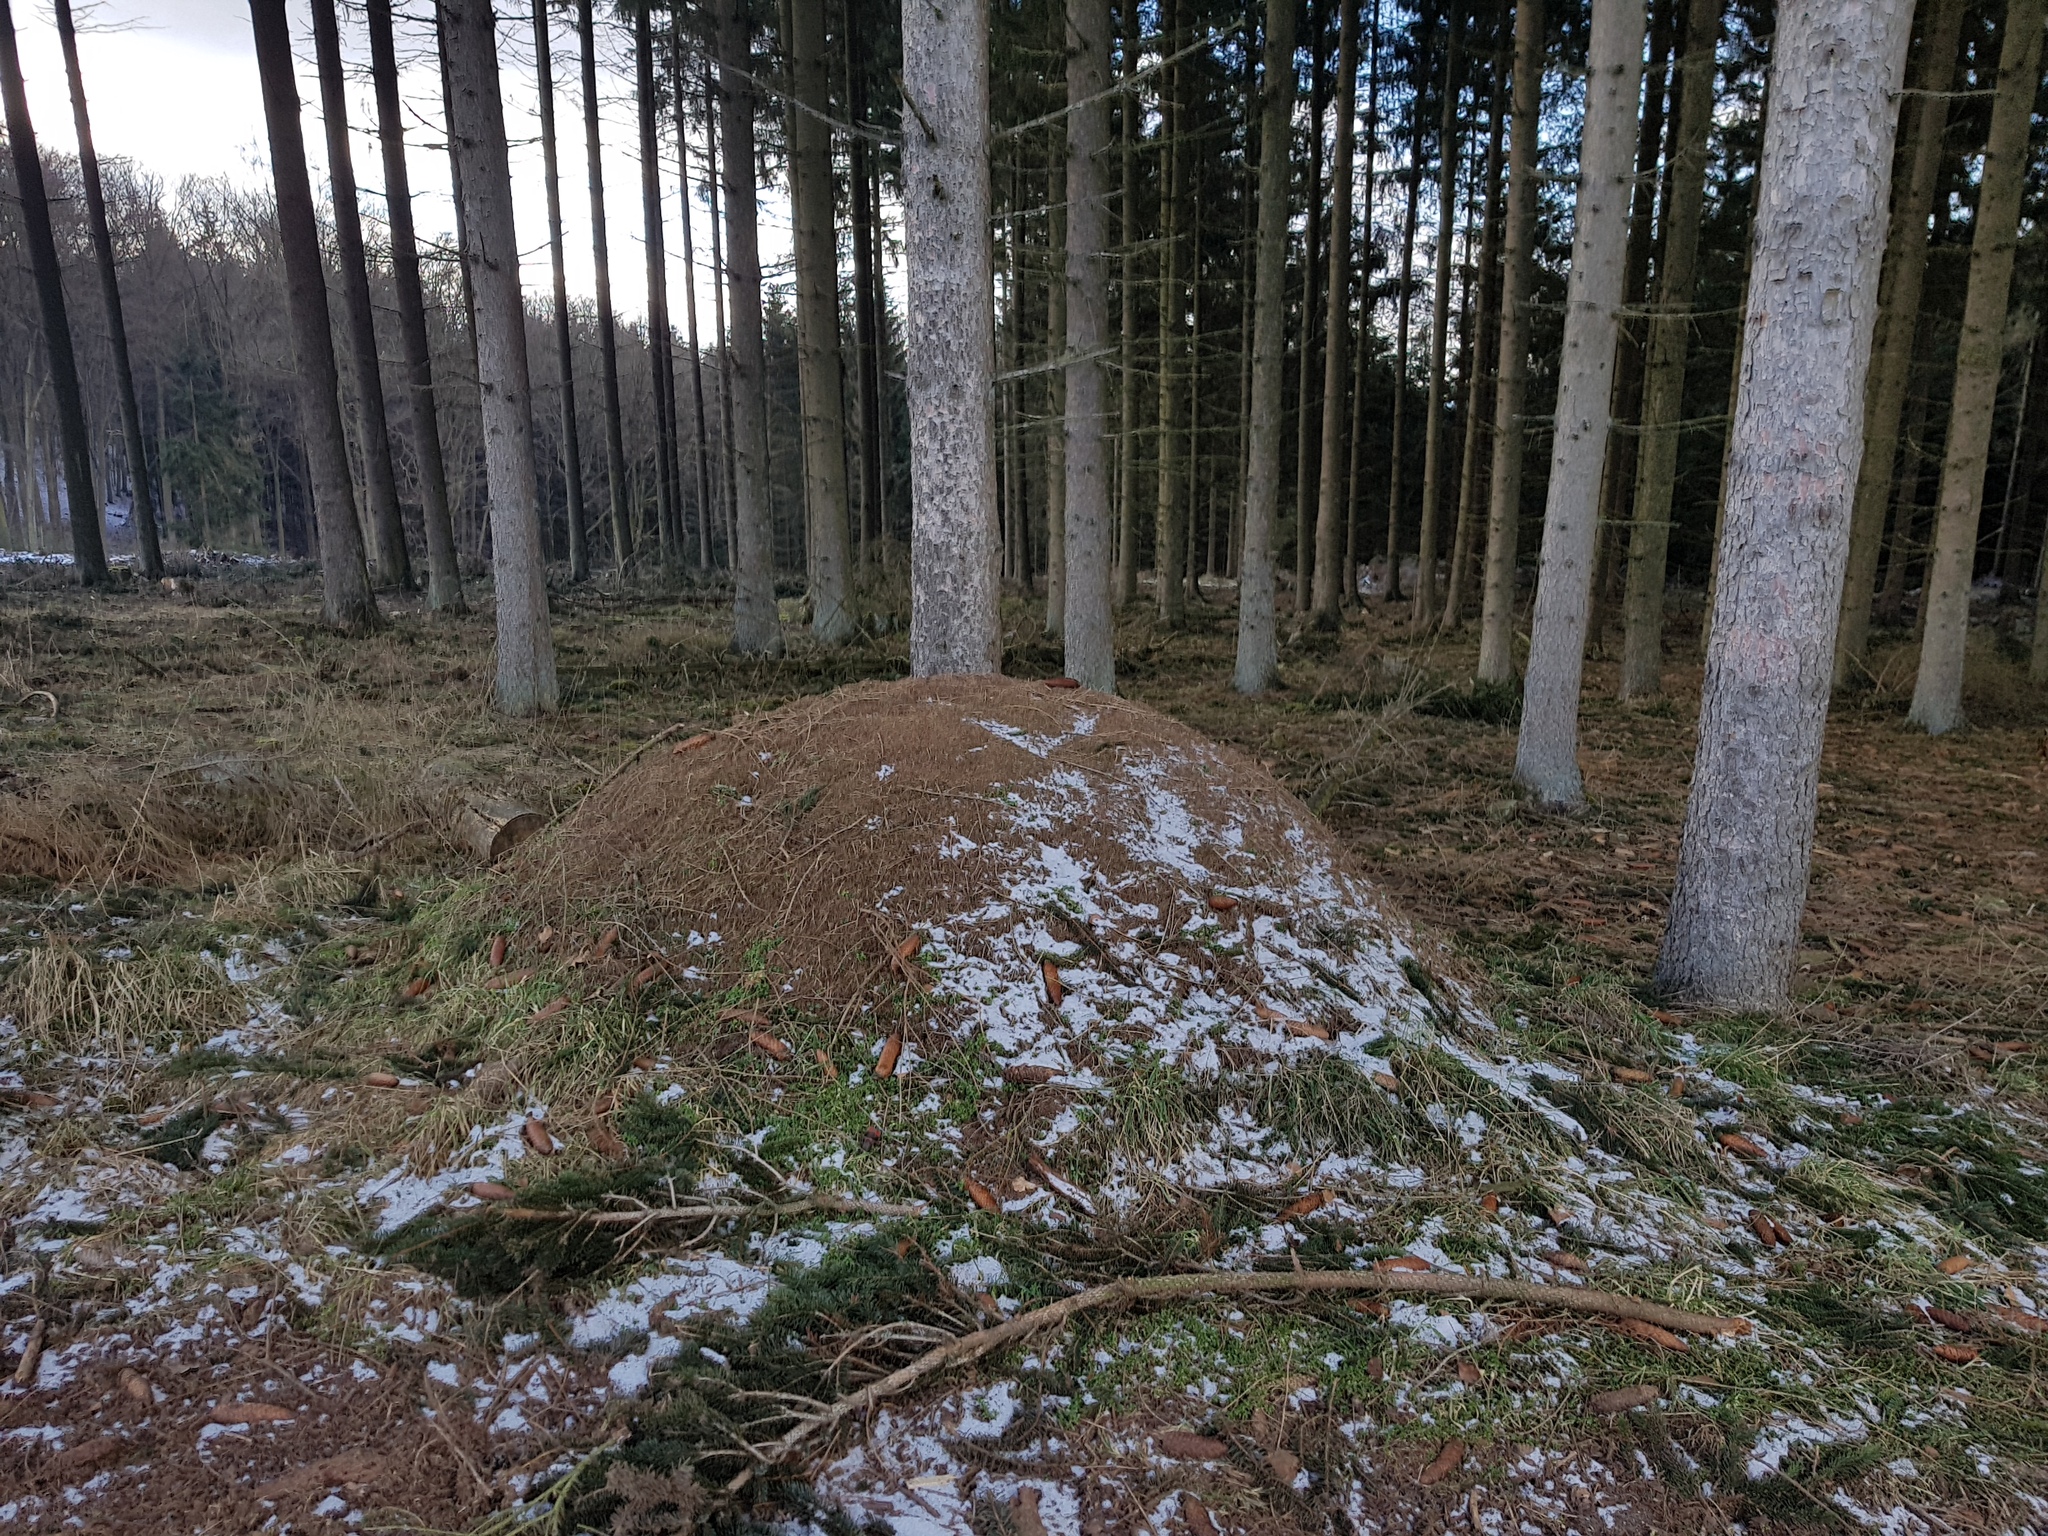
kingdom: Animalia
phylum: Arthropoda
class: Insecta
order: Hymenoptera
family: Formicidae
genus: Formica
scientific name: Formica
